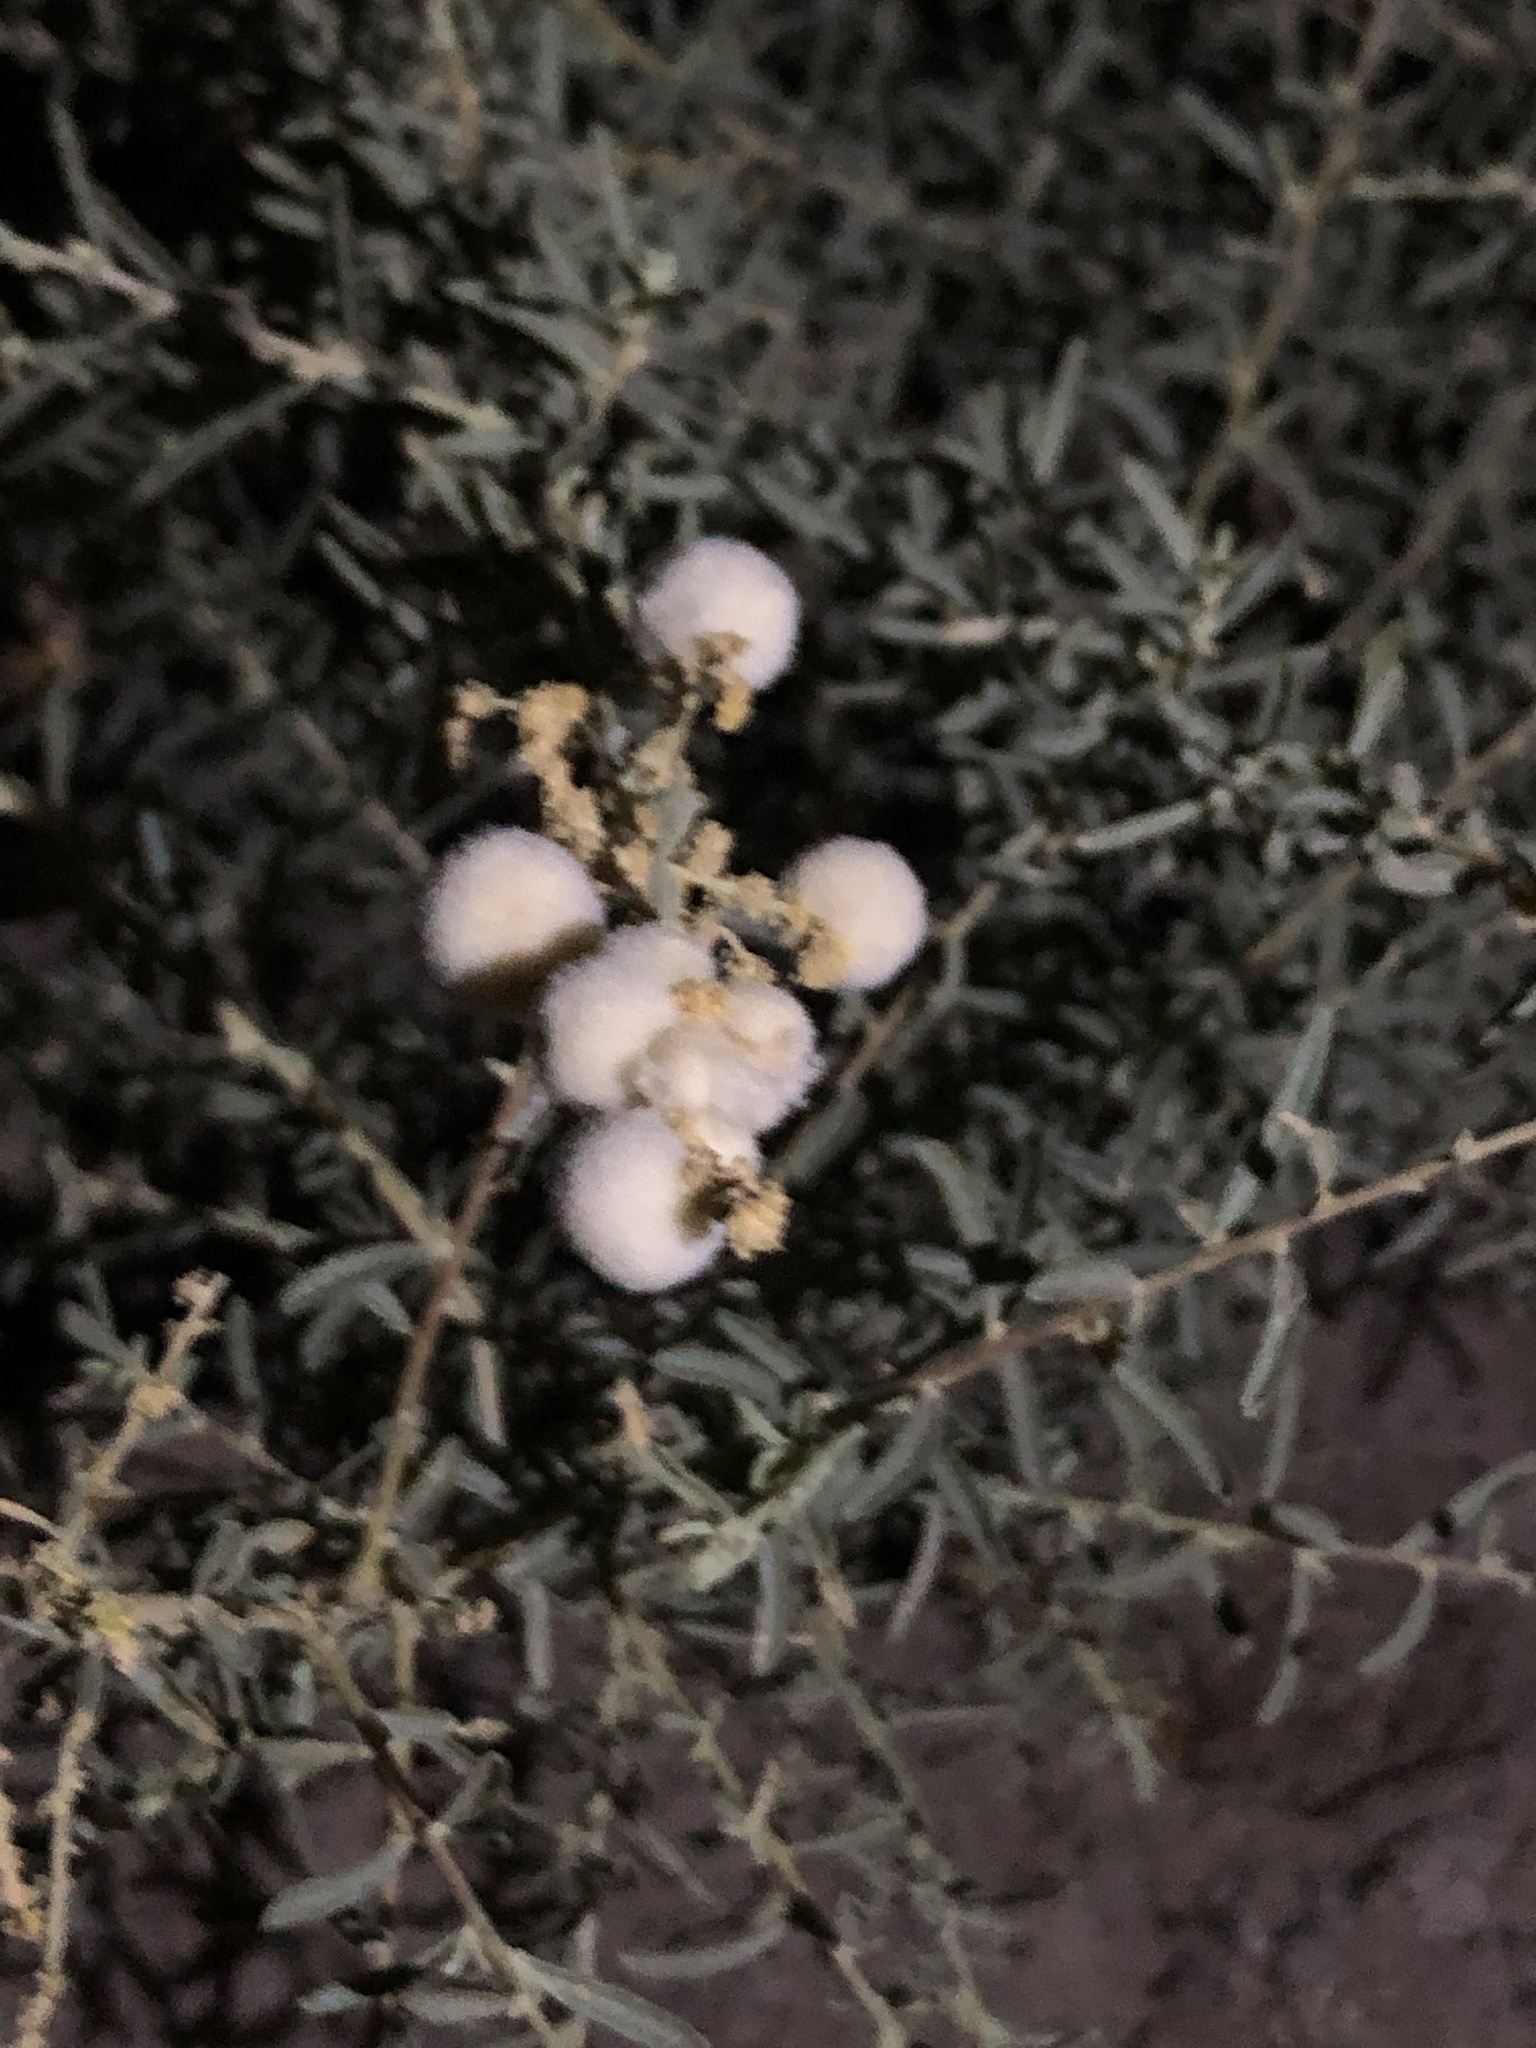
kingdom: Animalia
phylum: Arthropoda
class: Insecta
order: Diptera
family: Cecidomyiidae
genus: Asphondylia
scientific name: Asphondylia neomexicana
